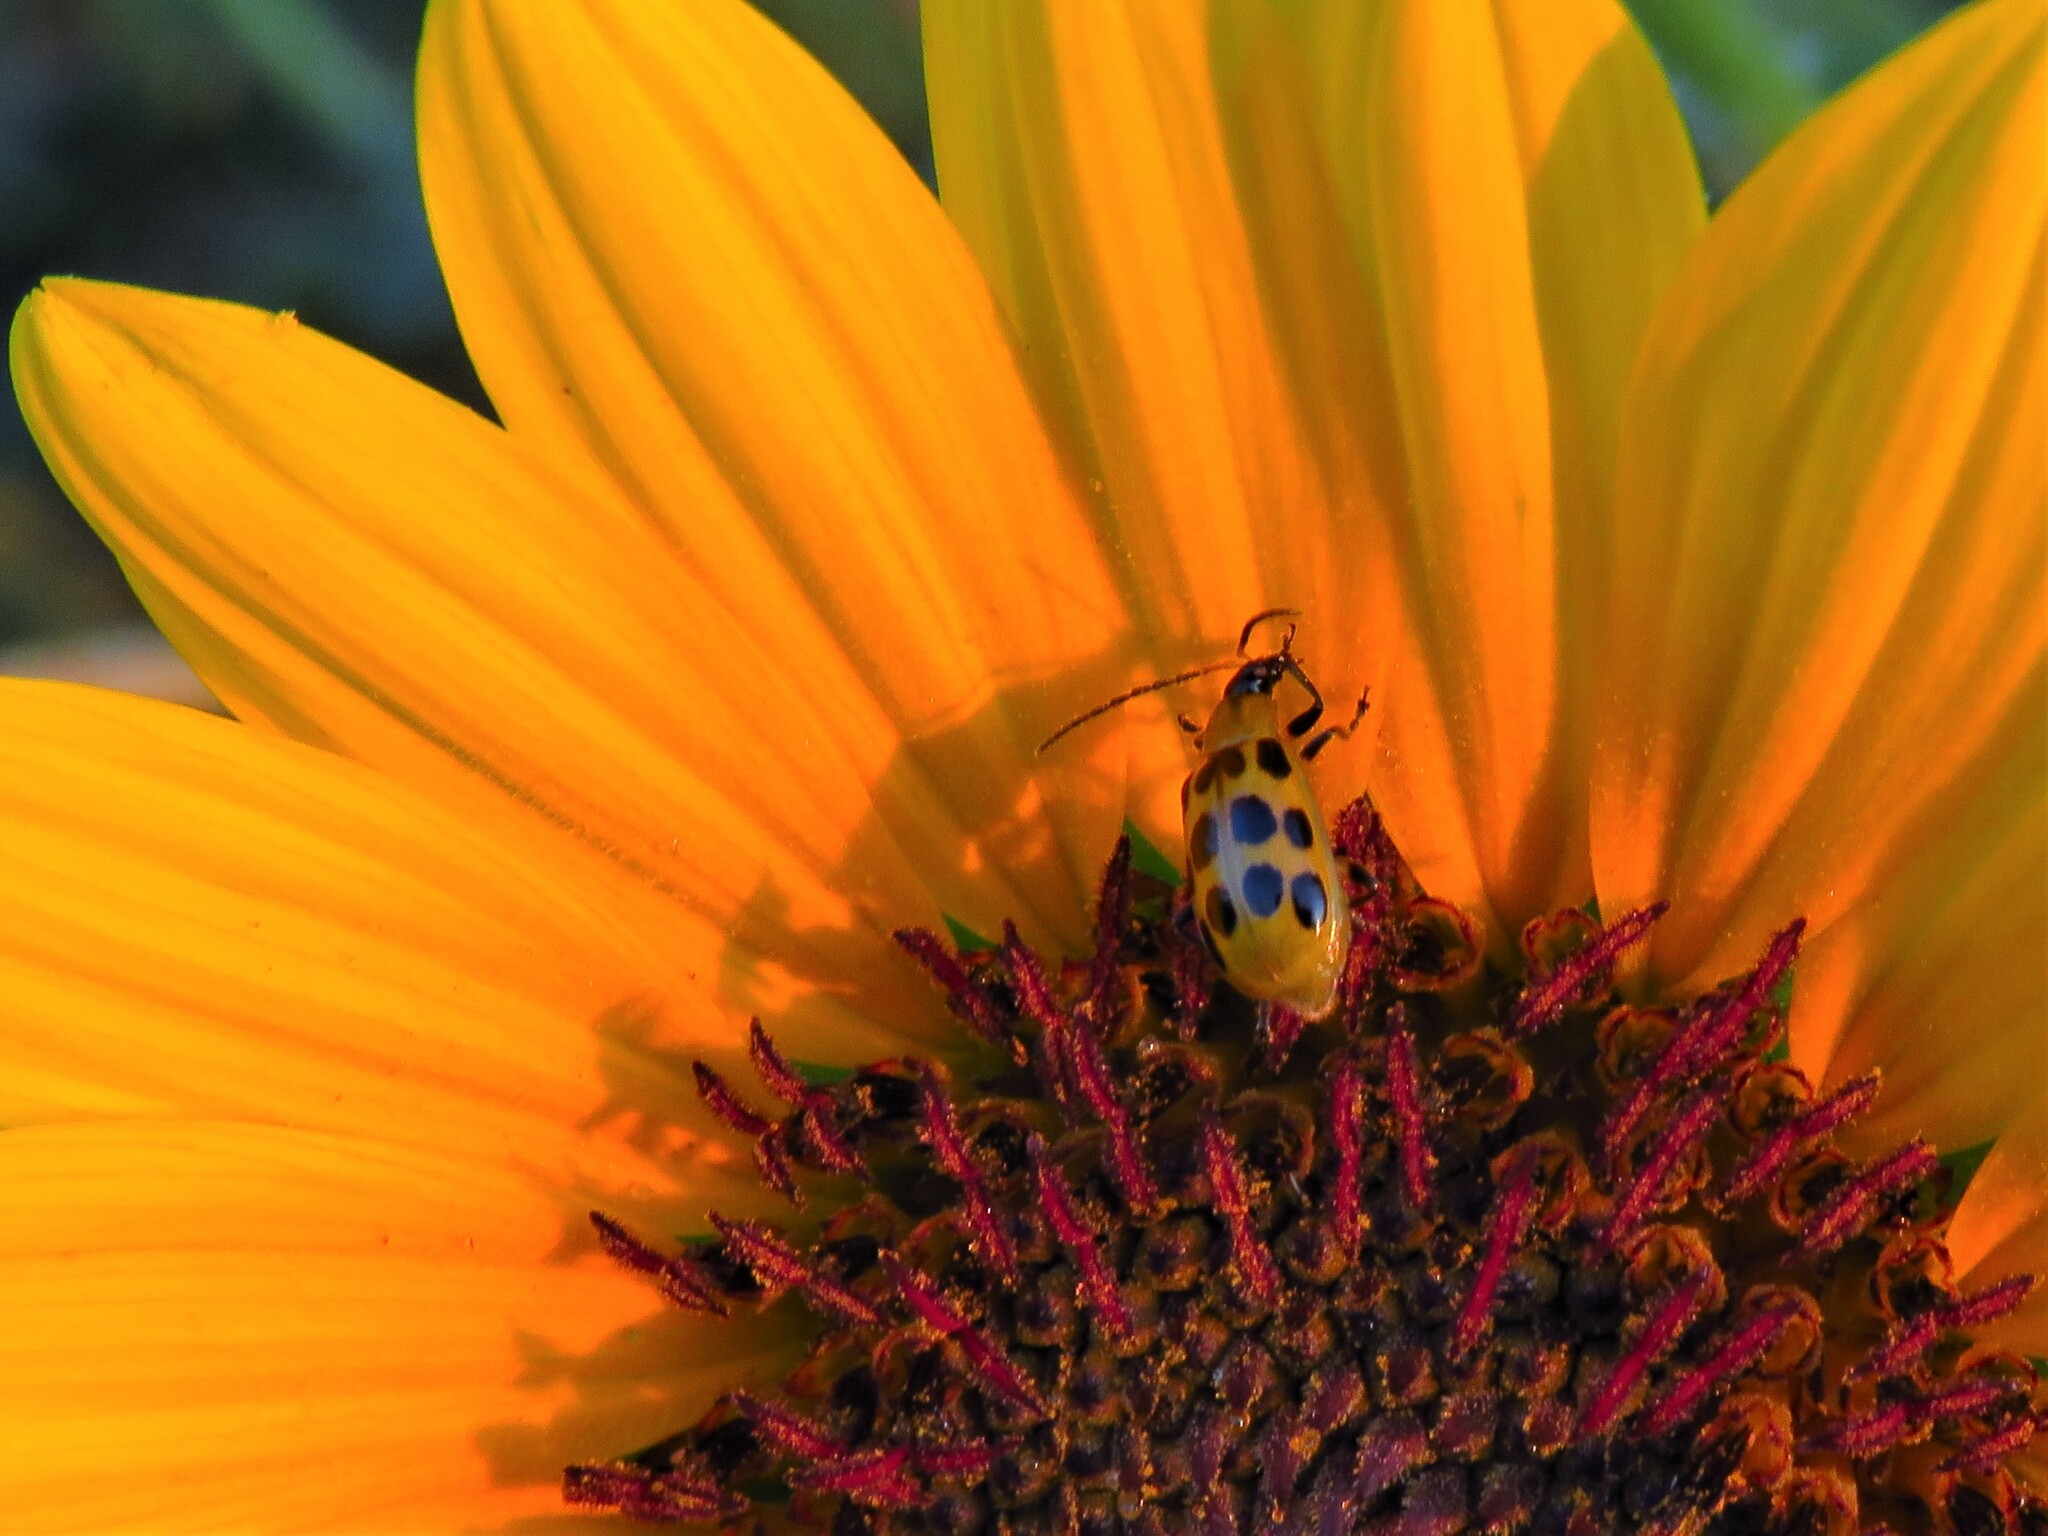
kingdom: Animalia
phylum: Arthropoda
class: Insecta
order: Coleoptera
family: Chrysomelidae
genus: Diabrotica
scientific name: Diabrotica undecimpunctata
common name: Spotted cucumber beetle
